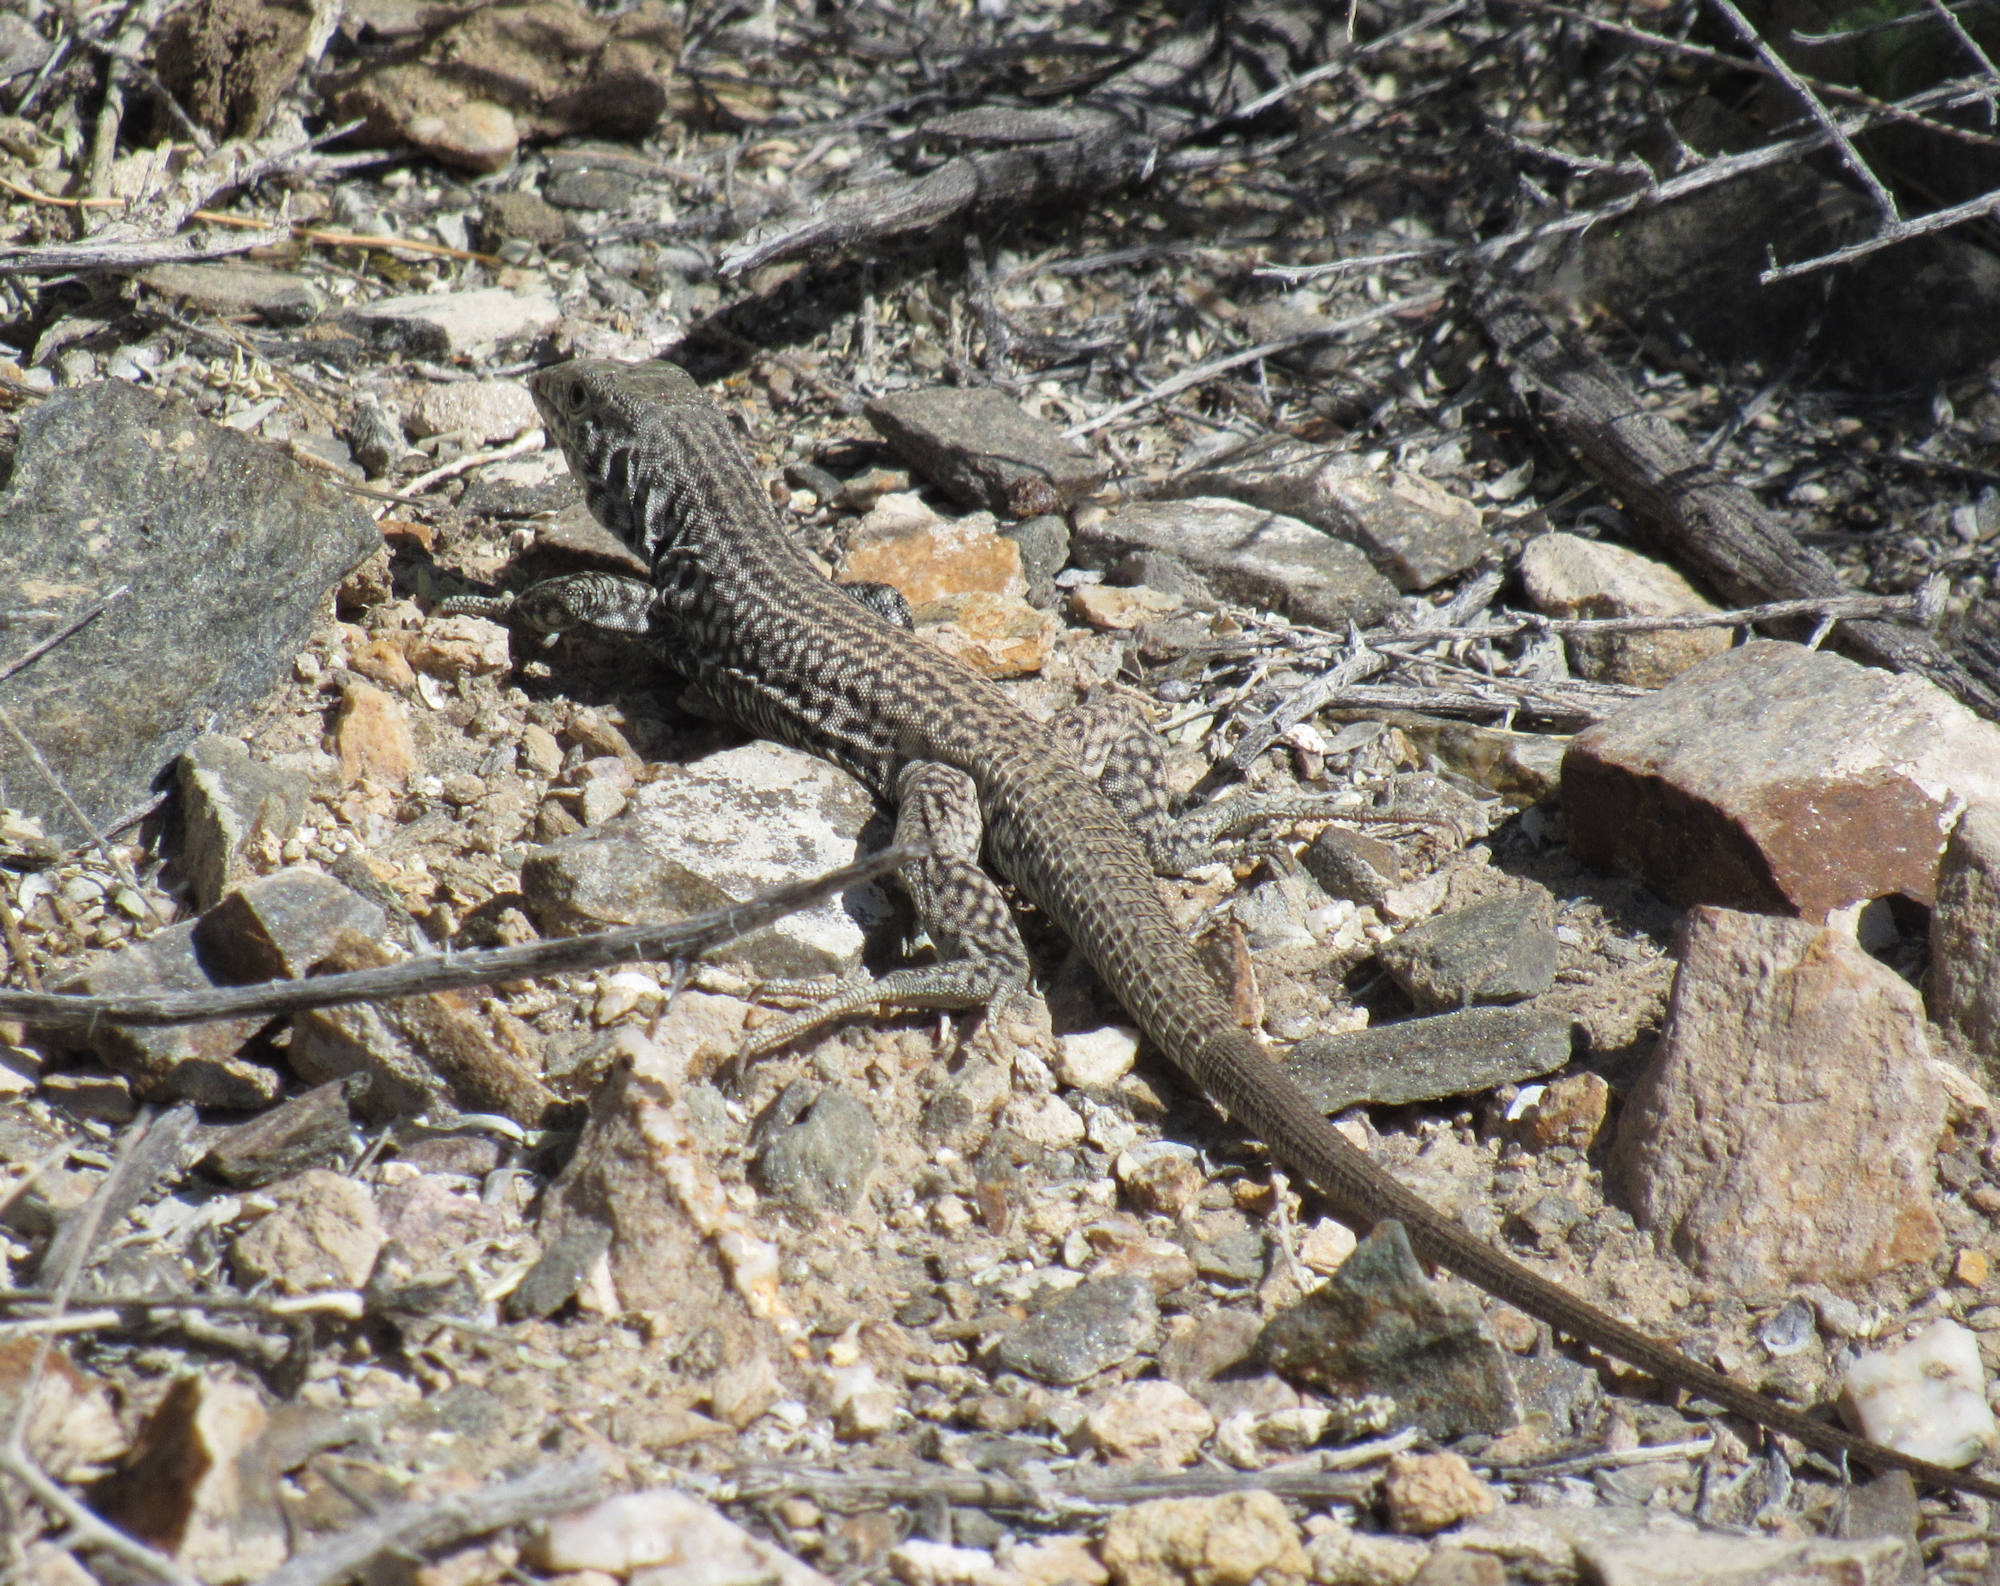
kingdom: Animalia
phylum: Chordata
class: Squamata
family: Teiidae
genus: Aspidoscelis
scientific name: Aspidoscelis tigris
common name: Tiger whiptail
